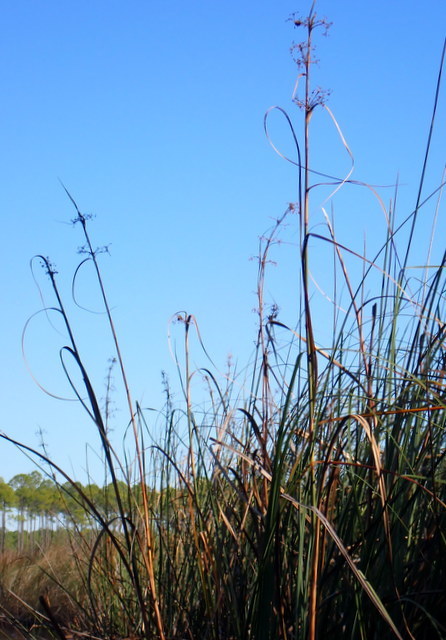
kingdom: Plantae
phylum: Tracheophyta
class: Liliopsida
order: Poales
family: Cyperaceae
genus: Cladium
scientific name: Cladium mariscus
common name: Great fen-sedge
